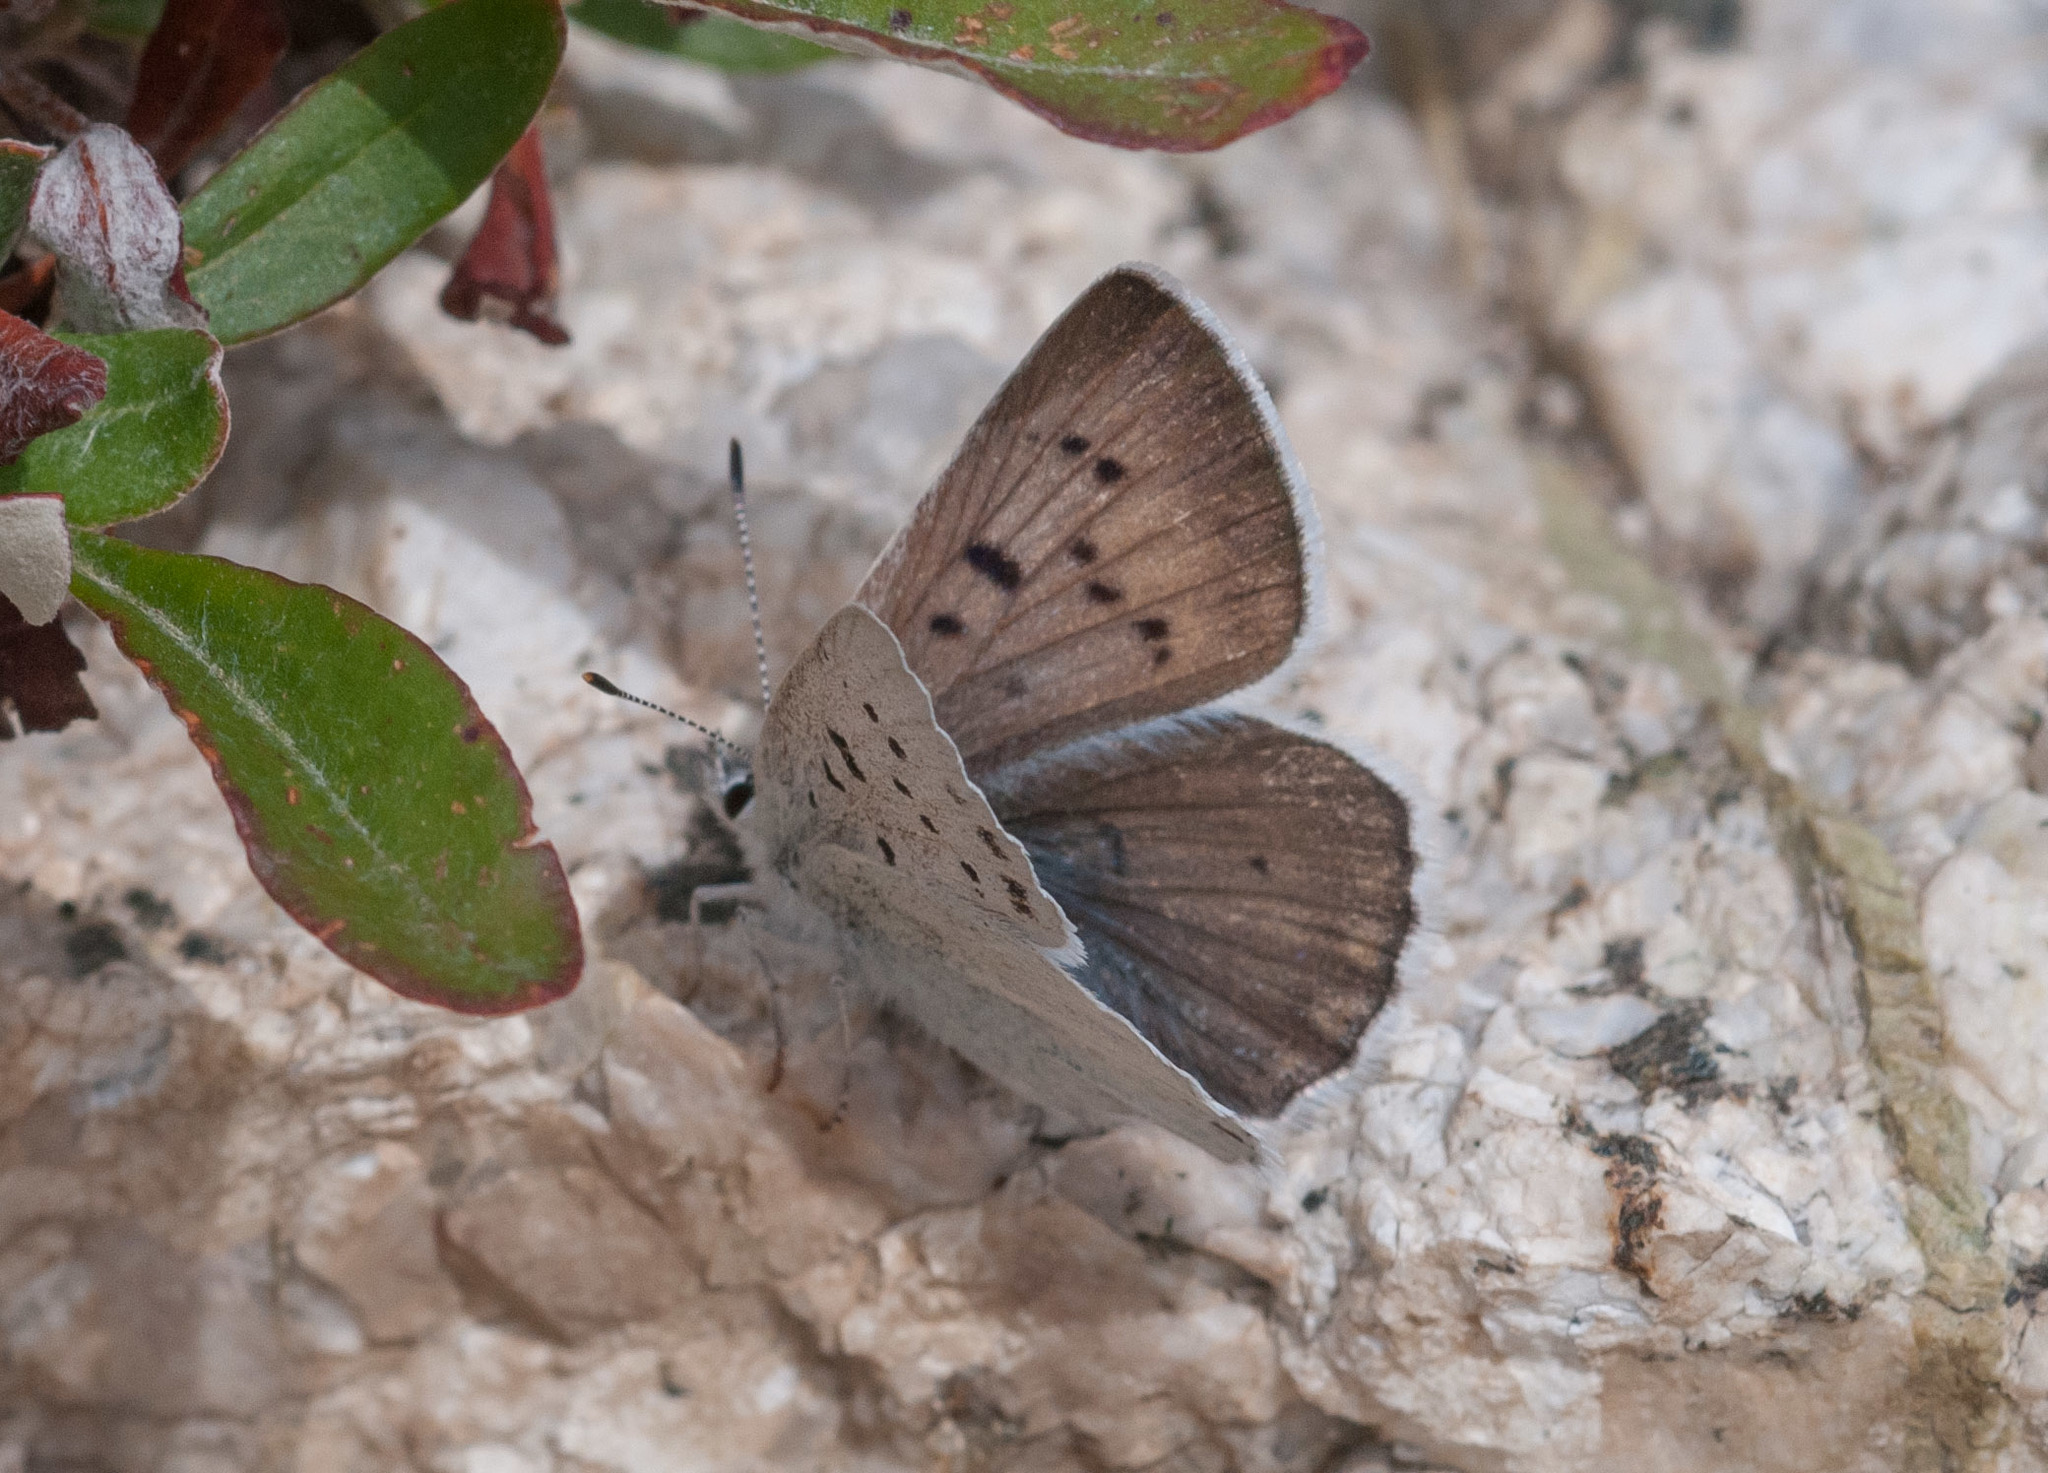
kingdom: Animalia
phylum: Arthropoda
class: Insecta
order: Lepidoptera
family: Lycaenidae
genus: Tharsalea
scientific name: Tharsalea heteronea
